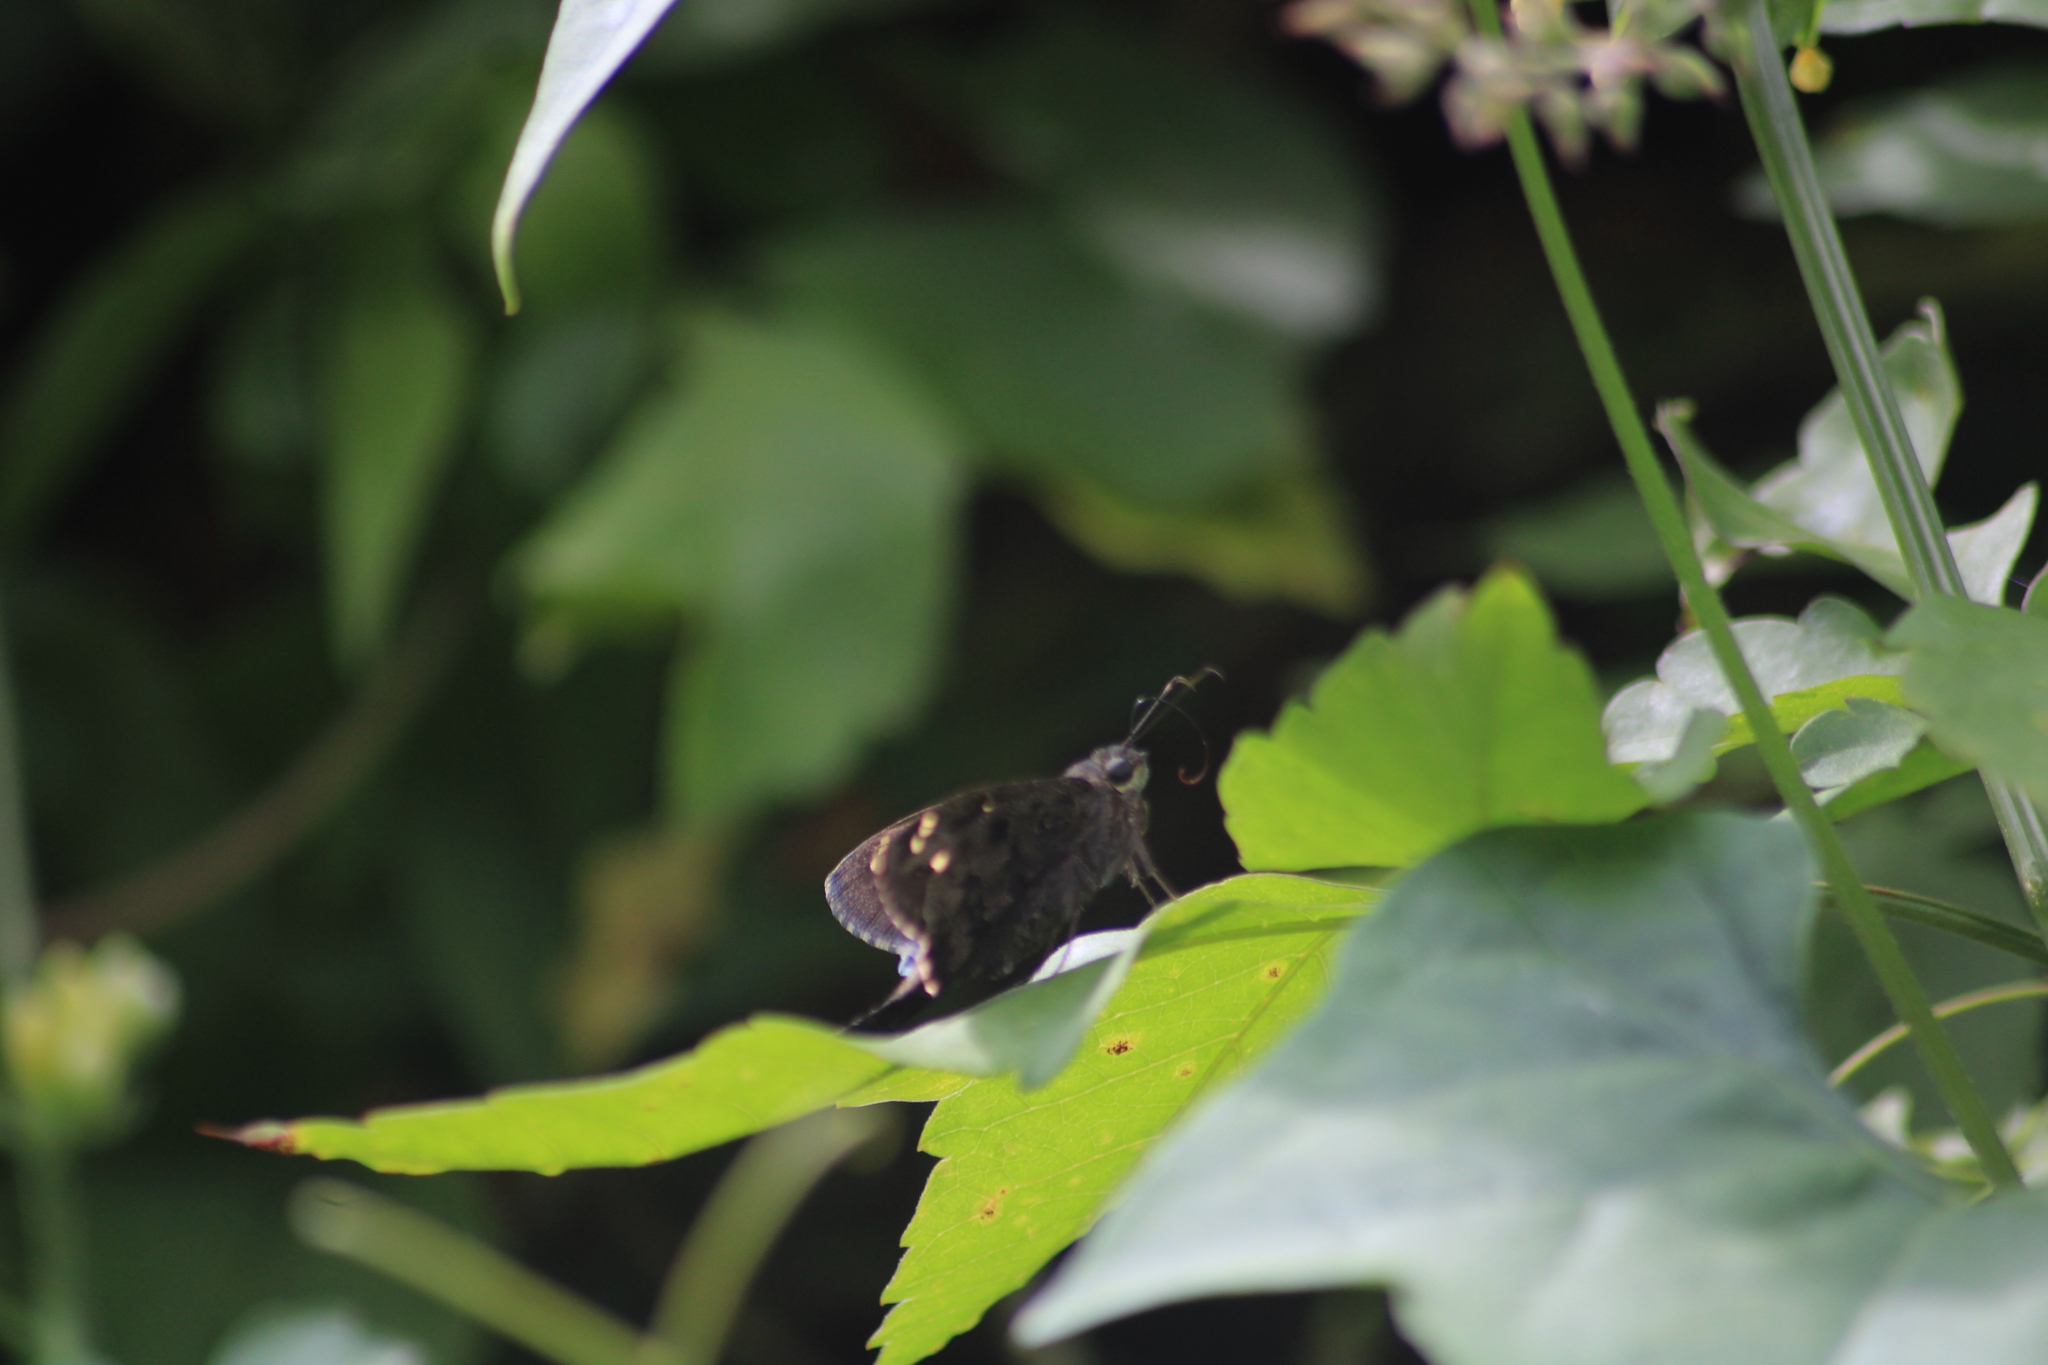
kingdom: Animalia
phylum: Arthropoda
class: Insecta
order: Lepidoptera
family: Hesperiidae
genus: Thorybes
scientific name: Thorybes
